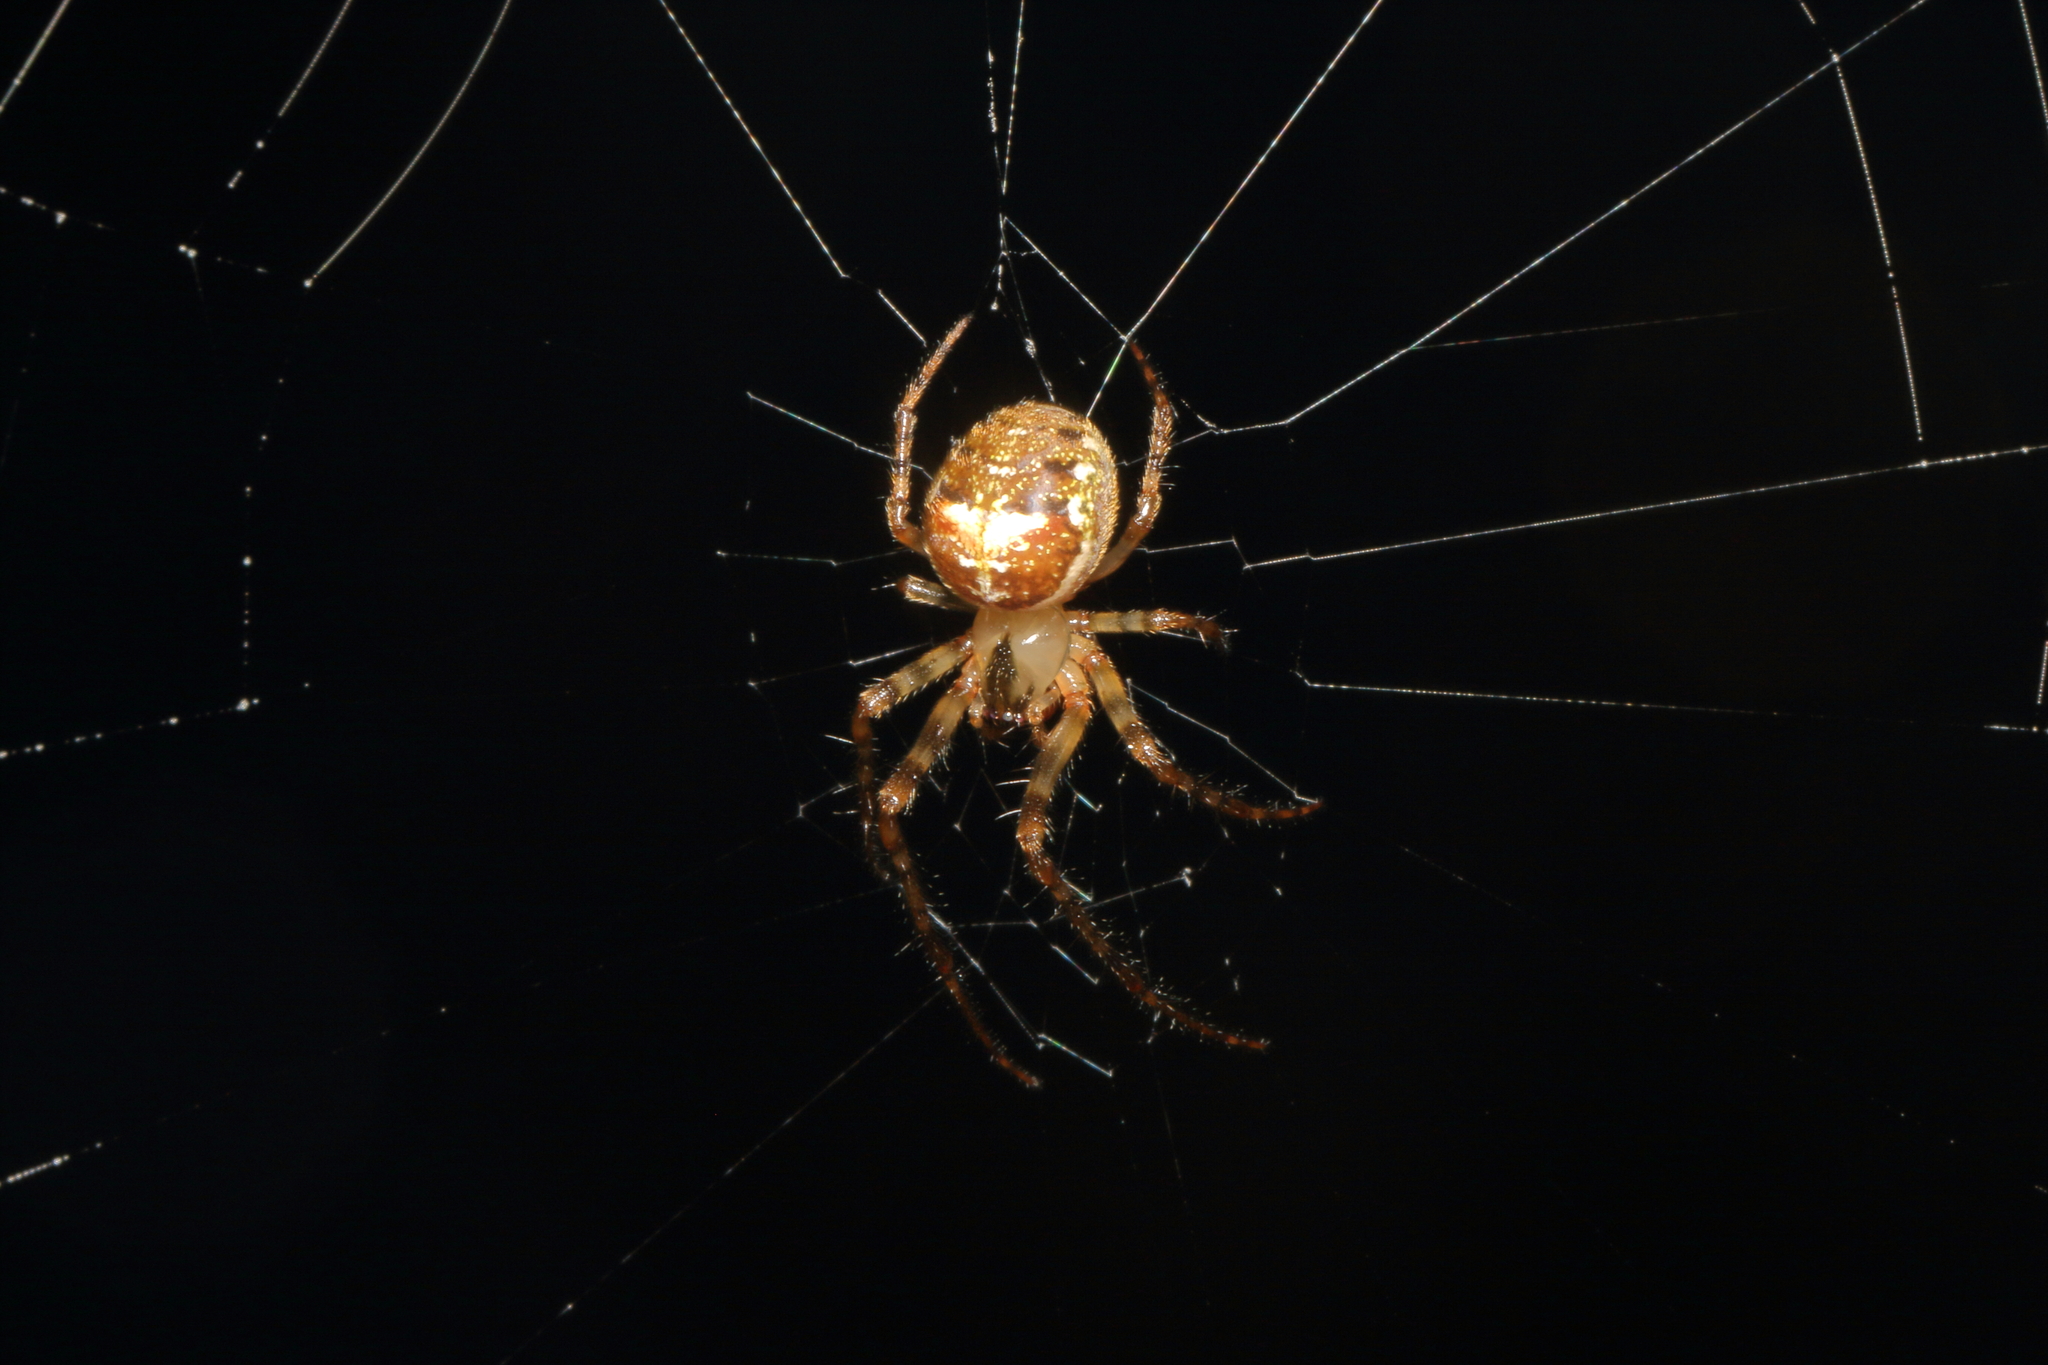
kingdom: Animalia
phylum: Arthropoda
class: Arachnida
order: Araneae
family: Tetragnathidae
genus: Taraire
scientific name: Taraire rufolineata
